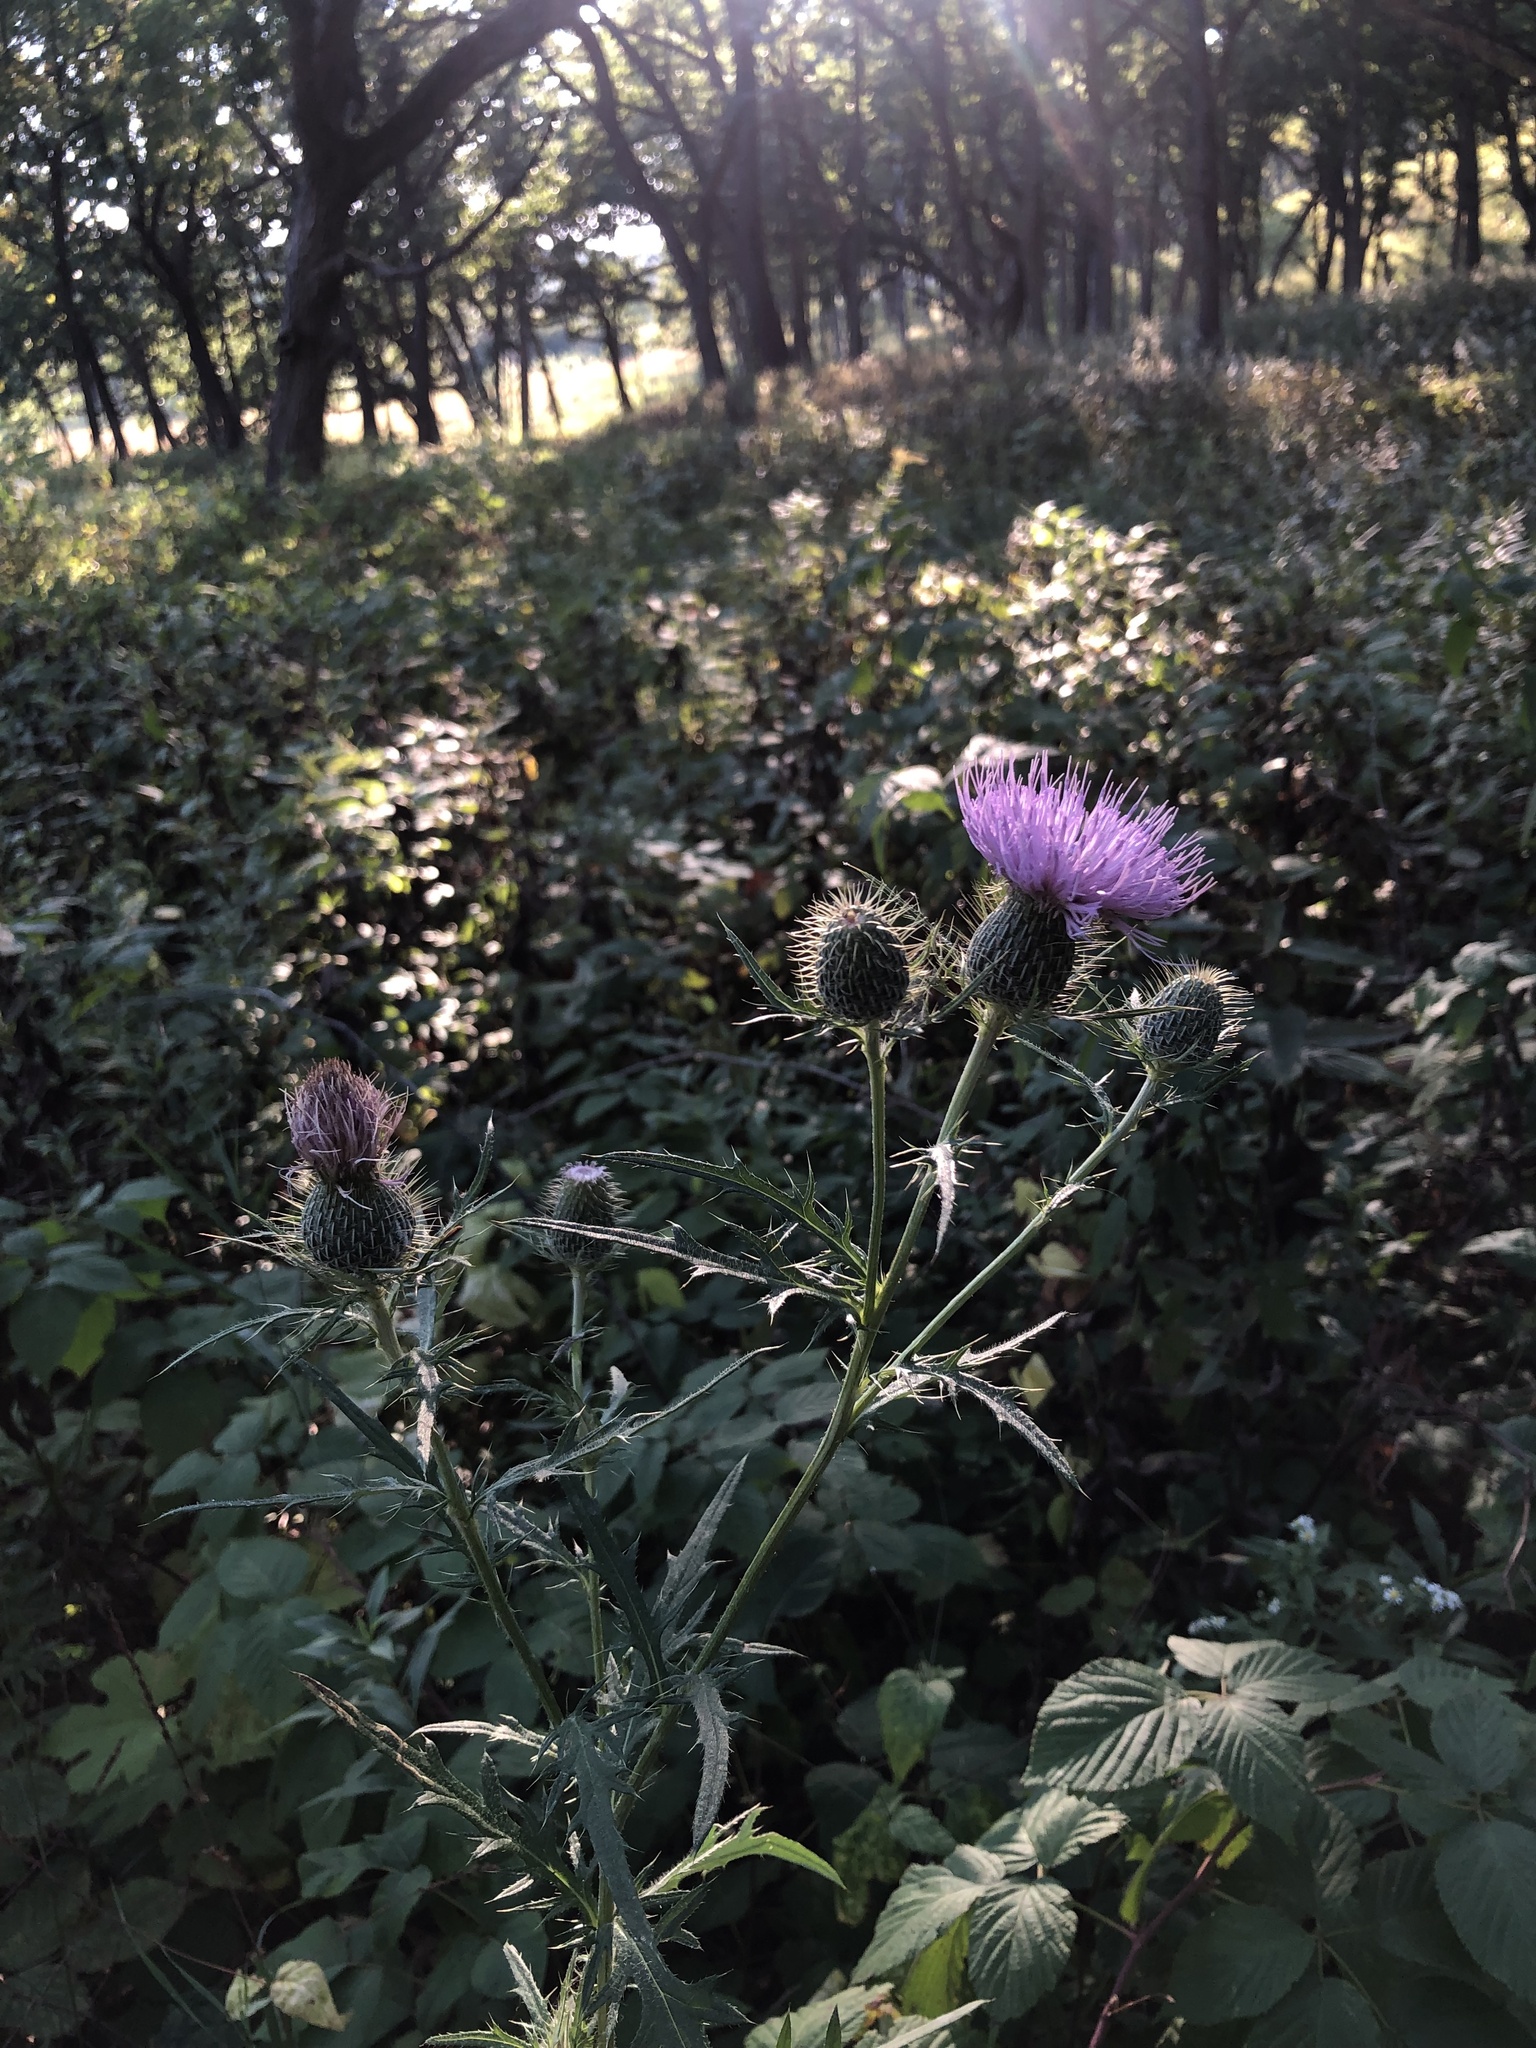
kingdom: Plantae
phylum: Tracheophyta
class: Magnoliopsida
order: Asterales
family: Asteraceae
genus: Cirsium
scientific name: Cirsium discolor
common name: Field thistle
